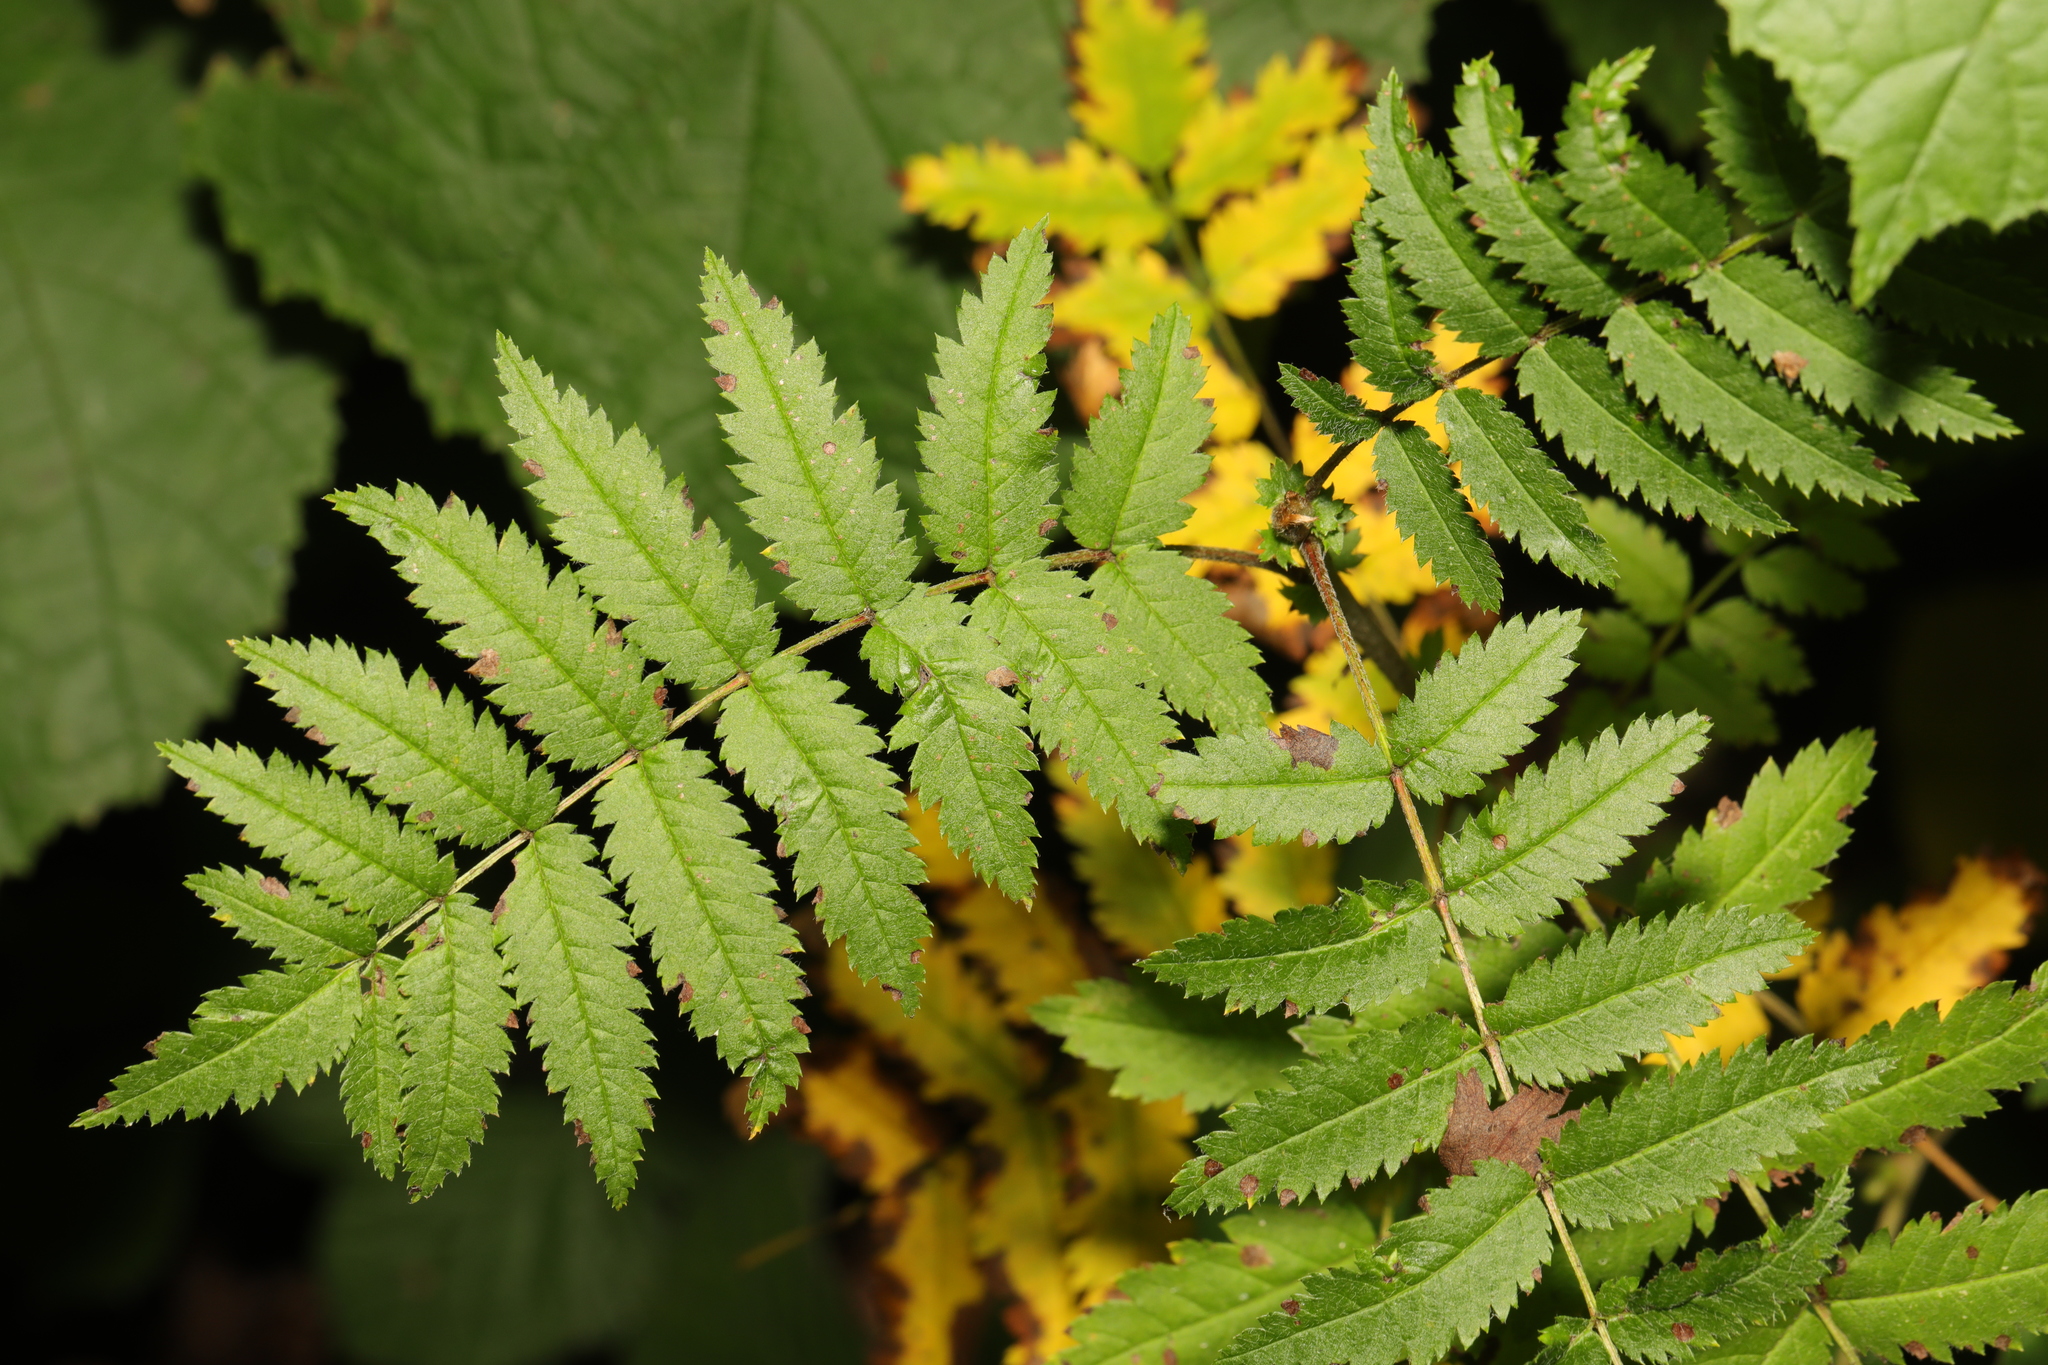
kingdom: Plantae
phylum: Tracheophyta
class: Magnoliopsida
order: Rosales
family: Rosaceae
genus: Sorbus
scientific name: Sorbus aucuparia
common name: Rowan
